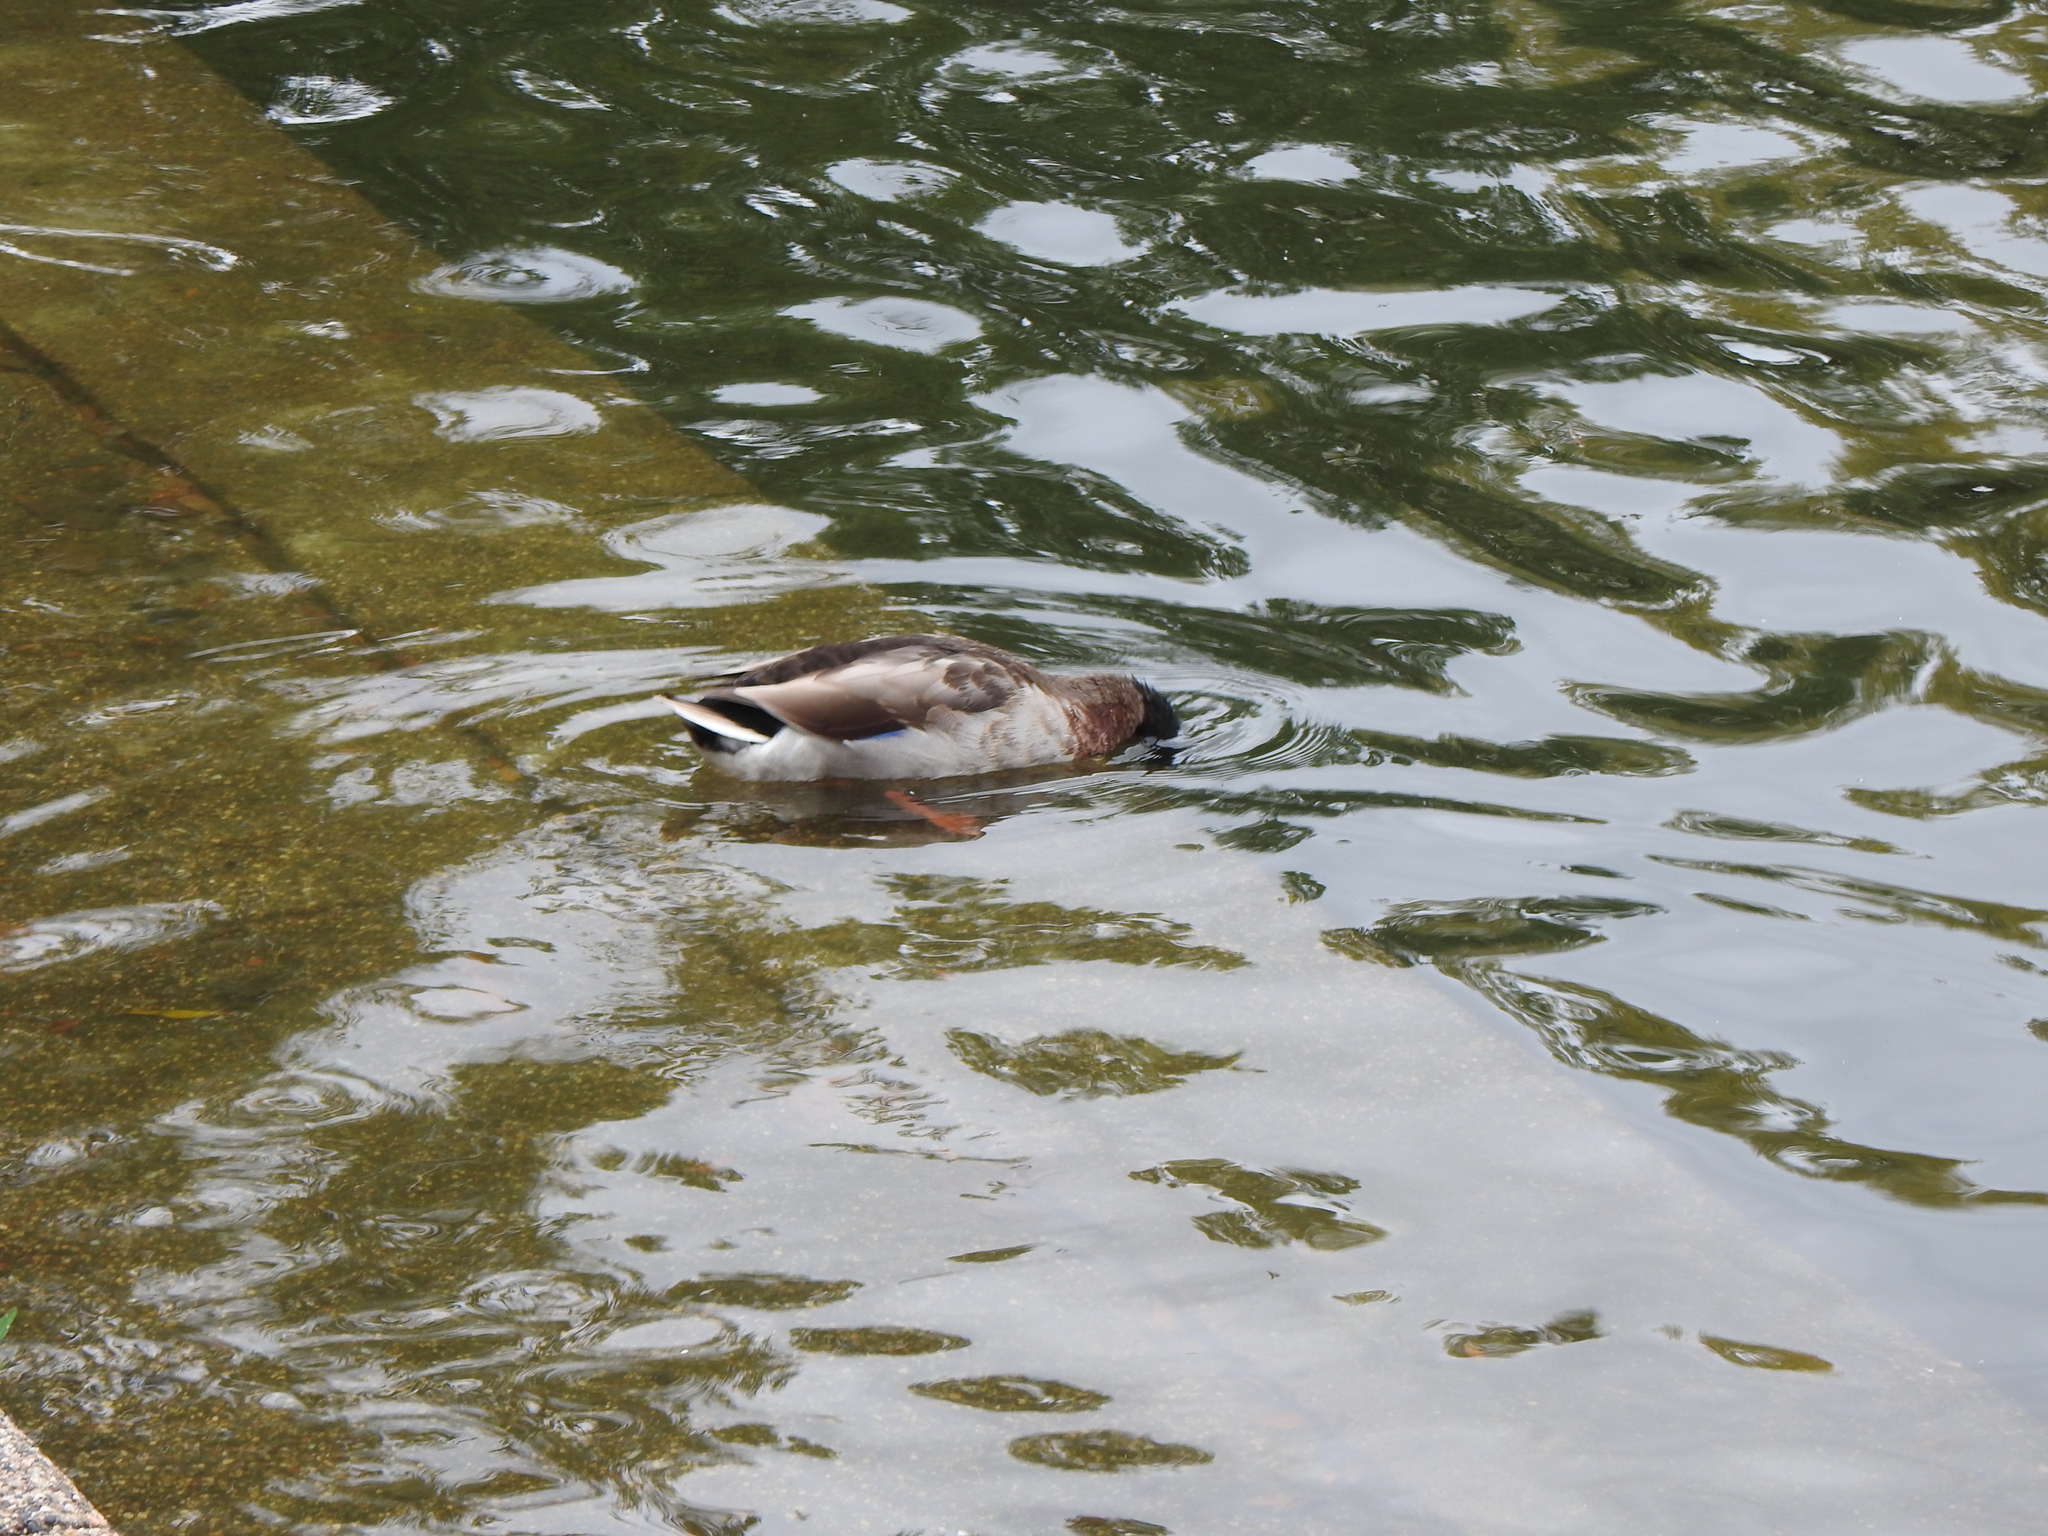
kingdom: Animalia
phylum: Chordata
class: Aves
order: Anseriformes
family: Anatidae
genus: Anas
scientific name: Anas platyrhynchos
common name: Mallard
